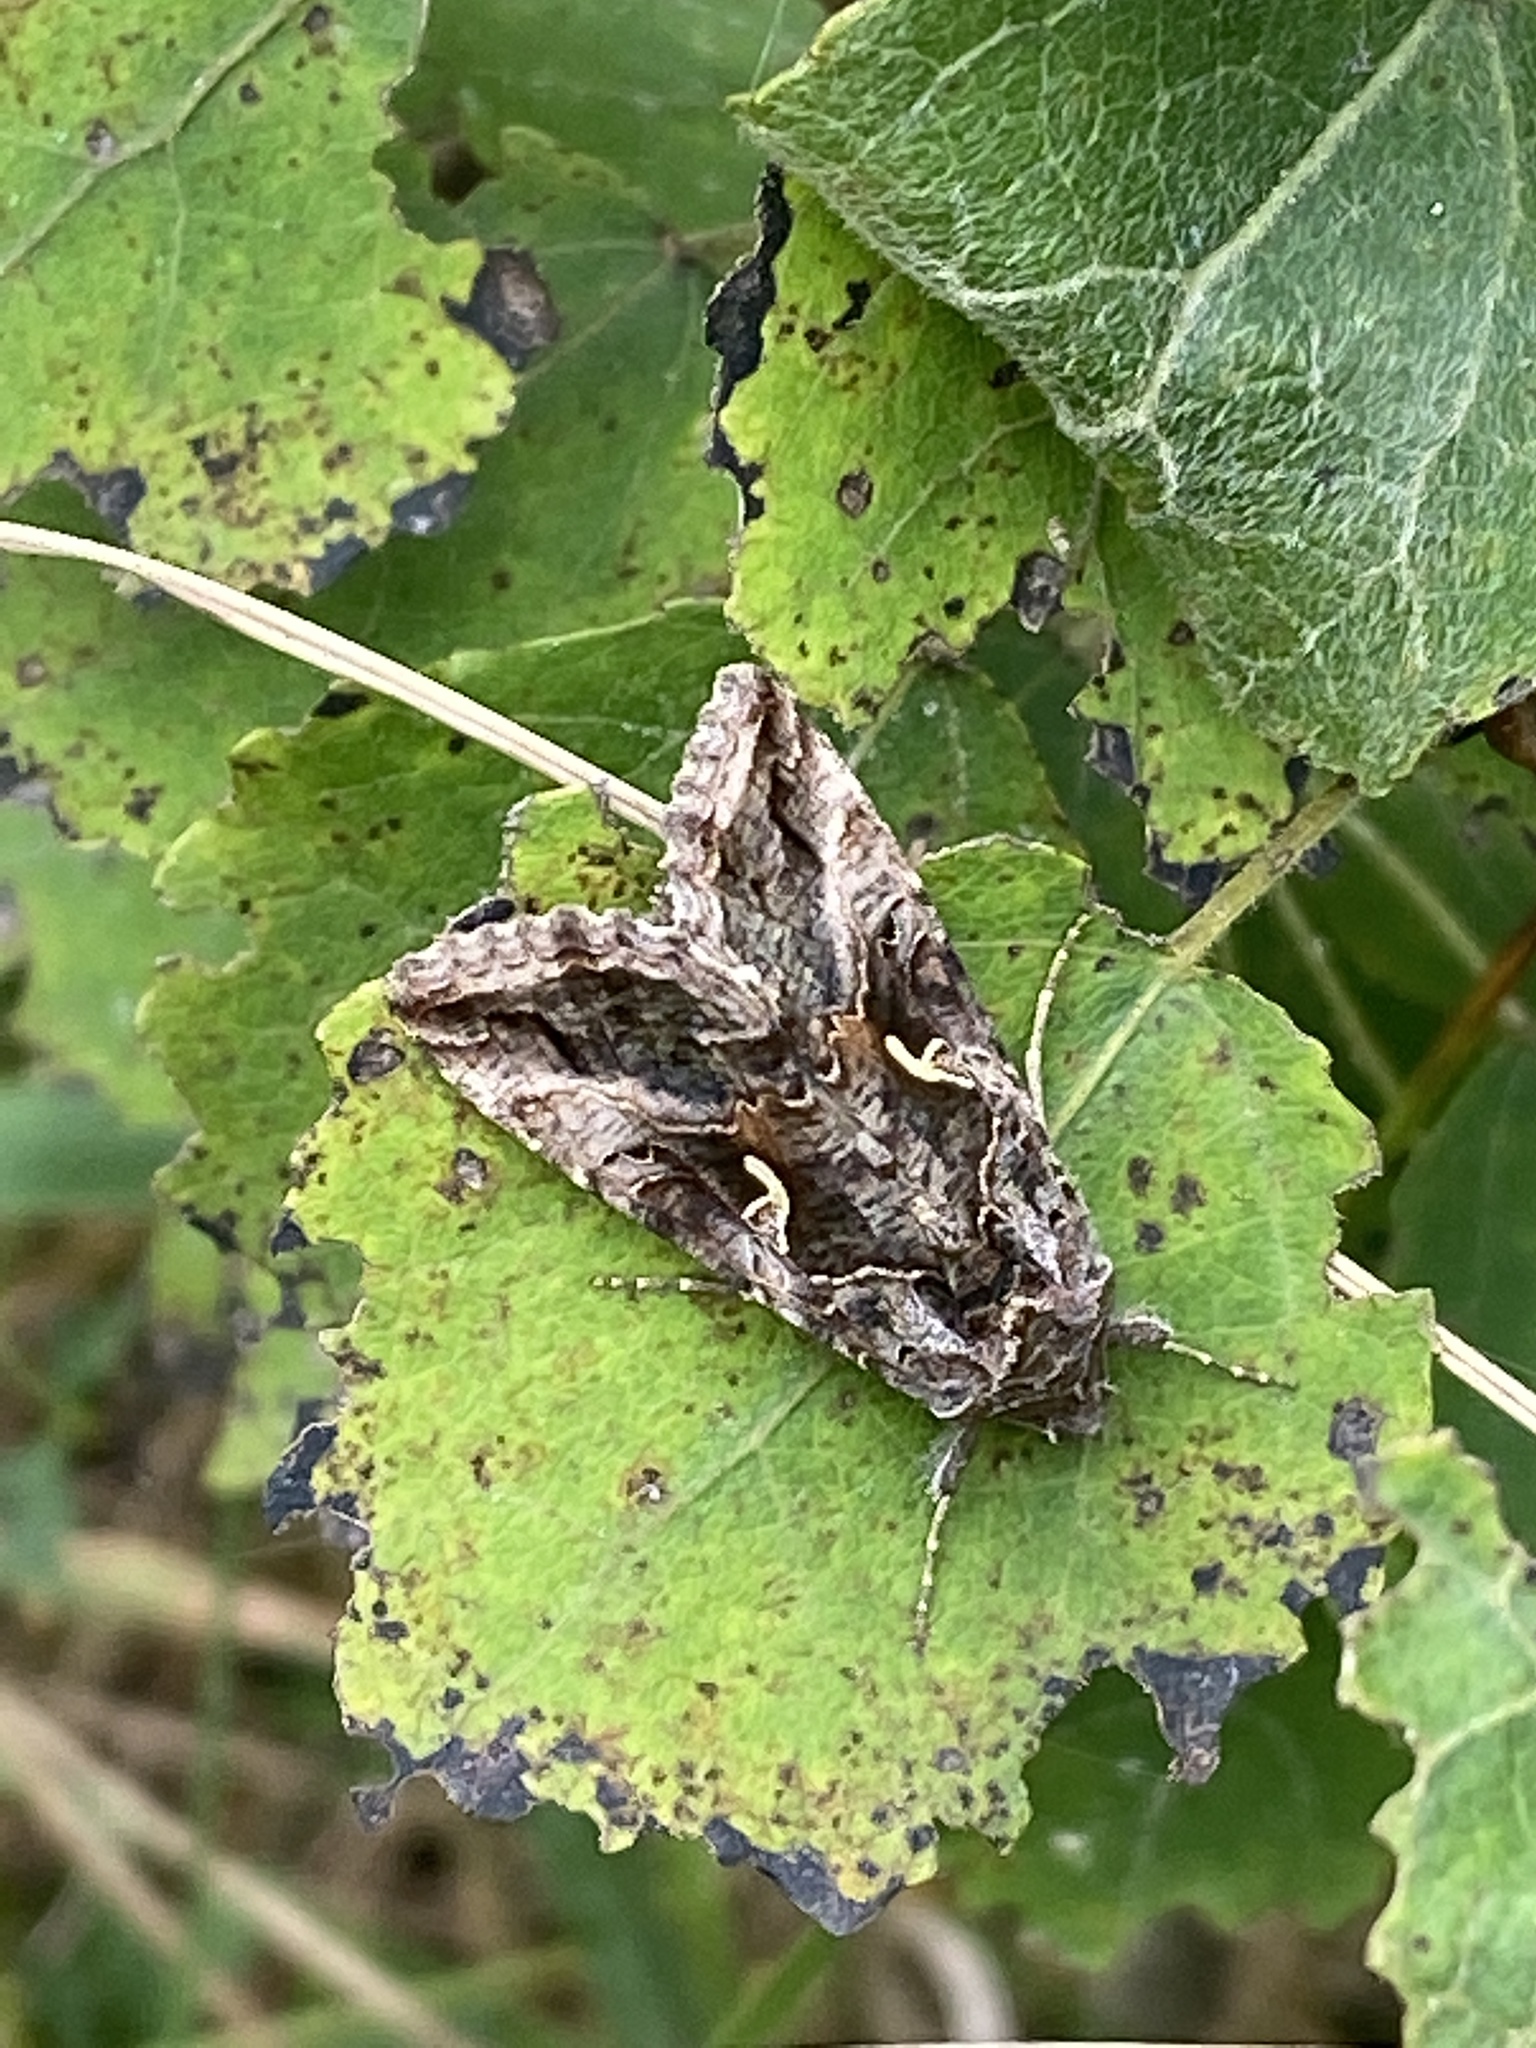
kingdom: Animalia
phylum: Arthropoda
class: Insecta
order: Lepidoptera
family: Noctuidae
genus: Autographa
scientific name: Autographa gamma
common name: Silver y
